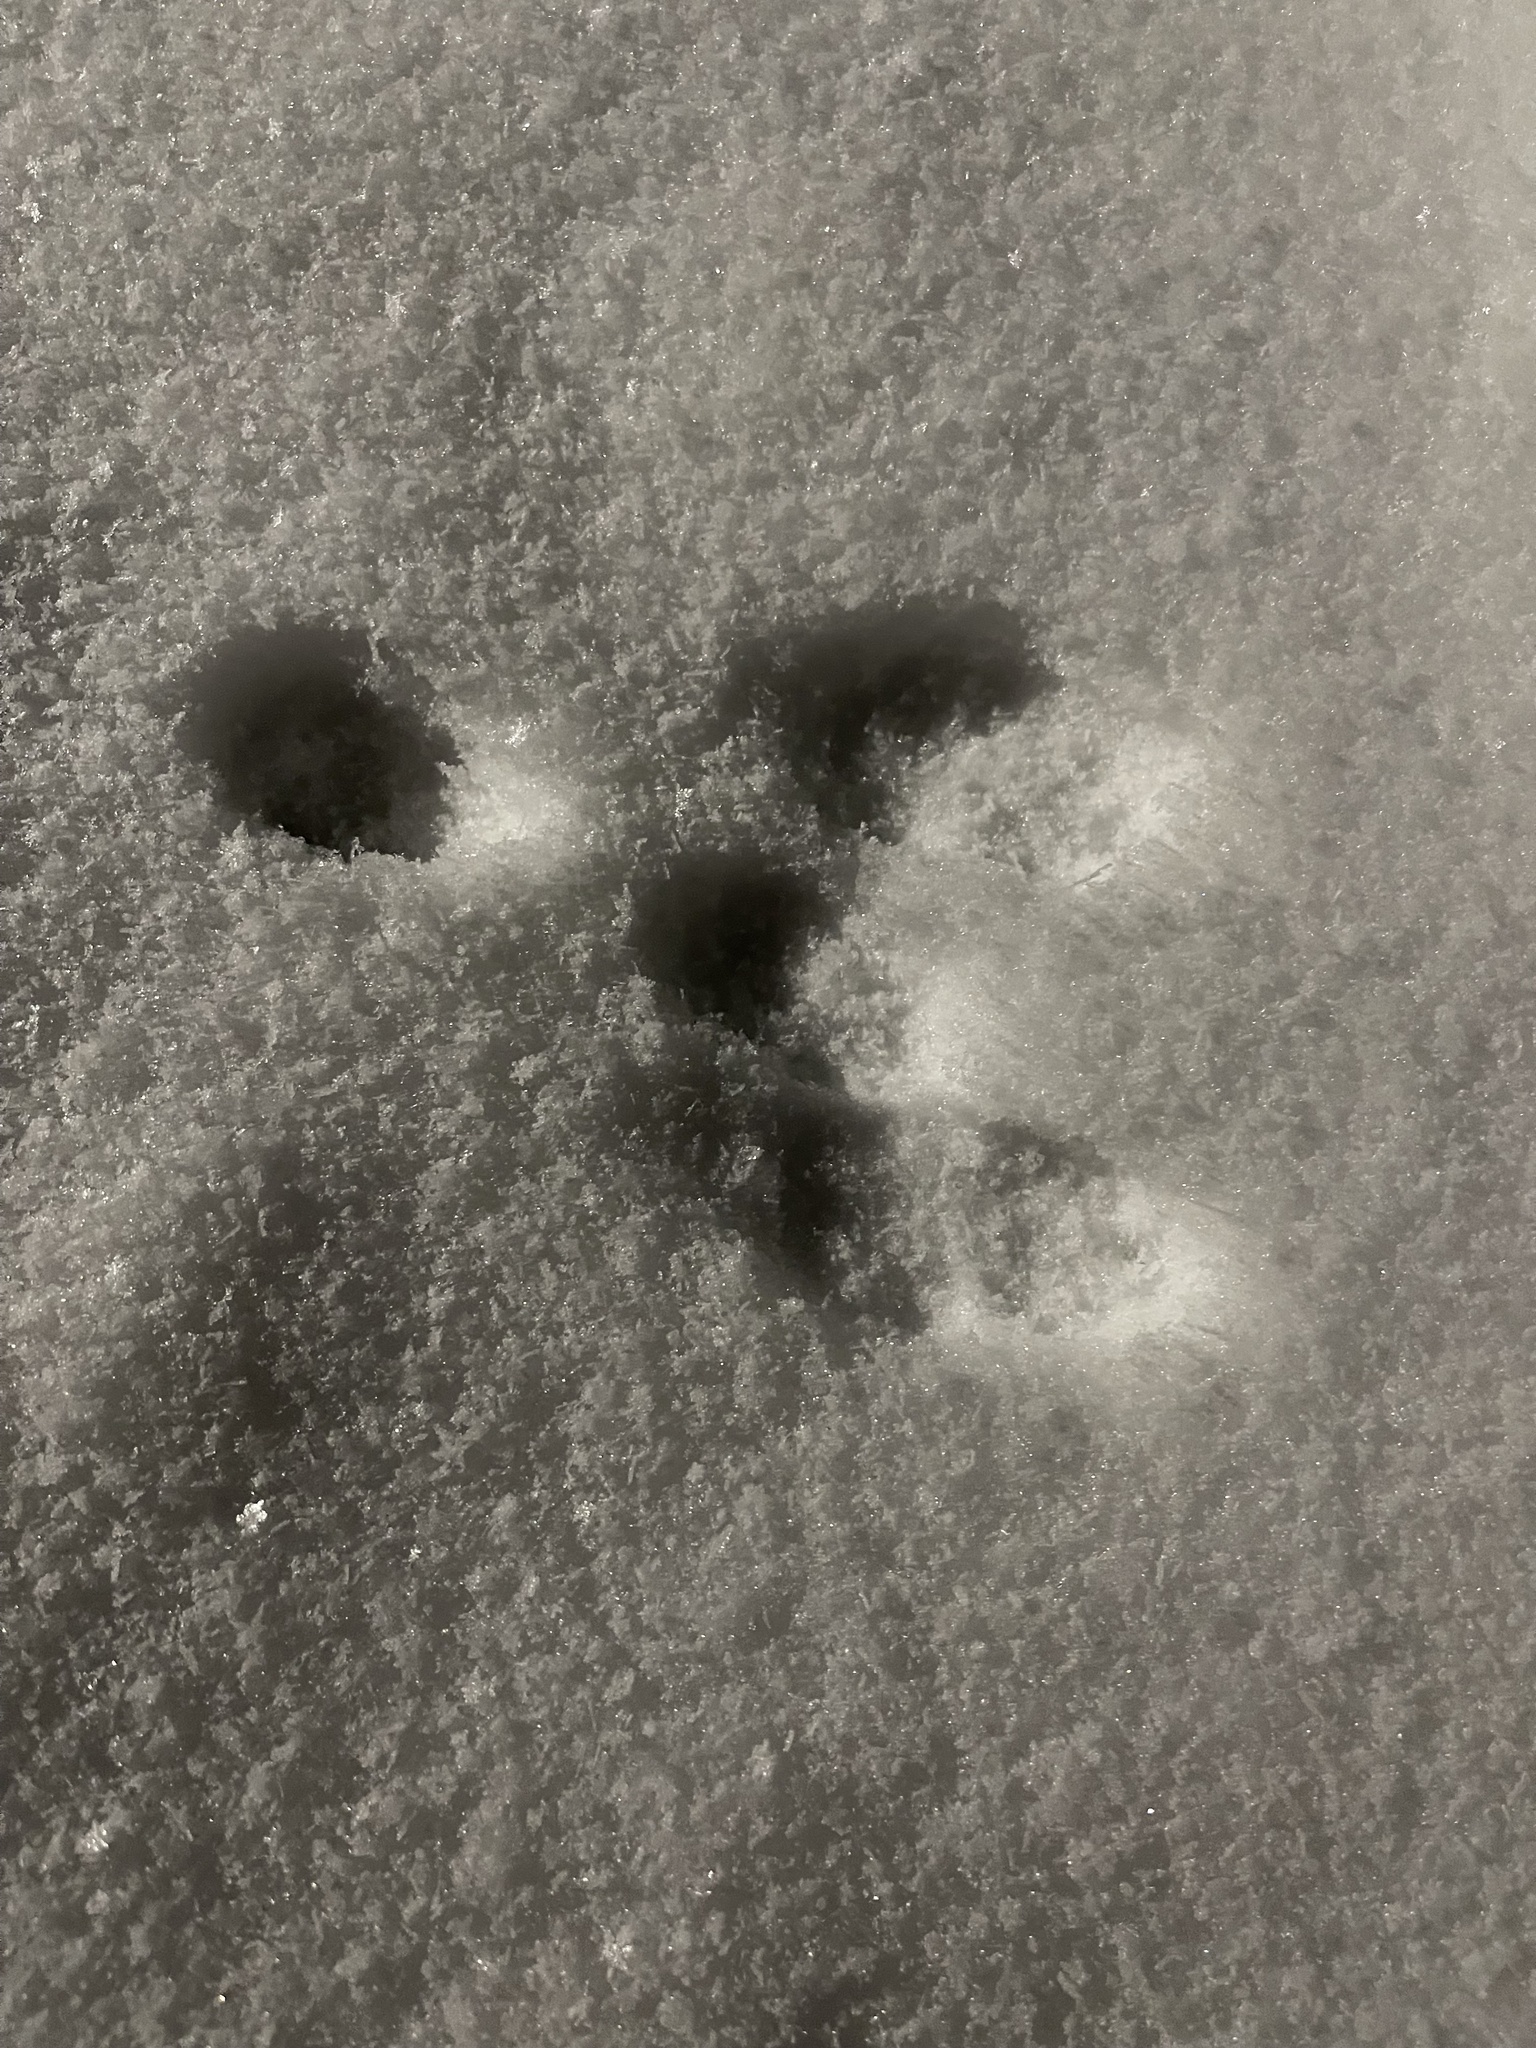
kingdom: Animalia
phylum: Chordata
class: Mammalia
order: Lagomorpha
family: Leporidae
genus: Sylvilagus
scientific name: Sylvilagus floridanus
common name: Eastern cottontail
